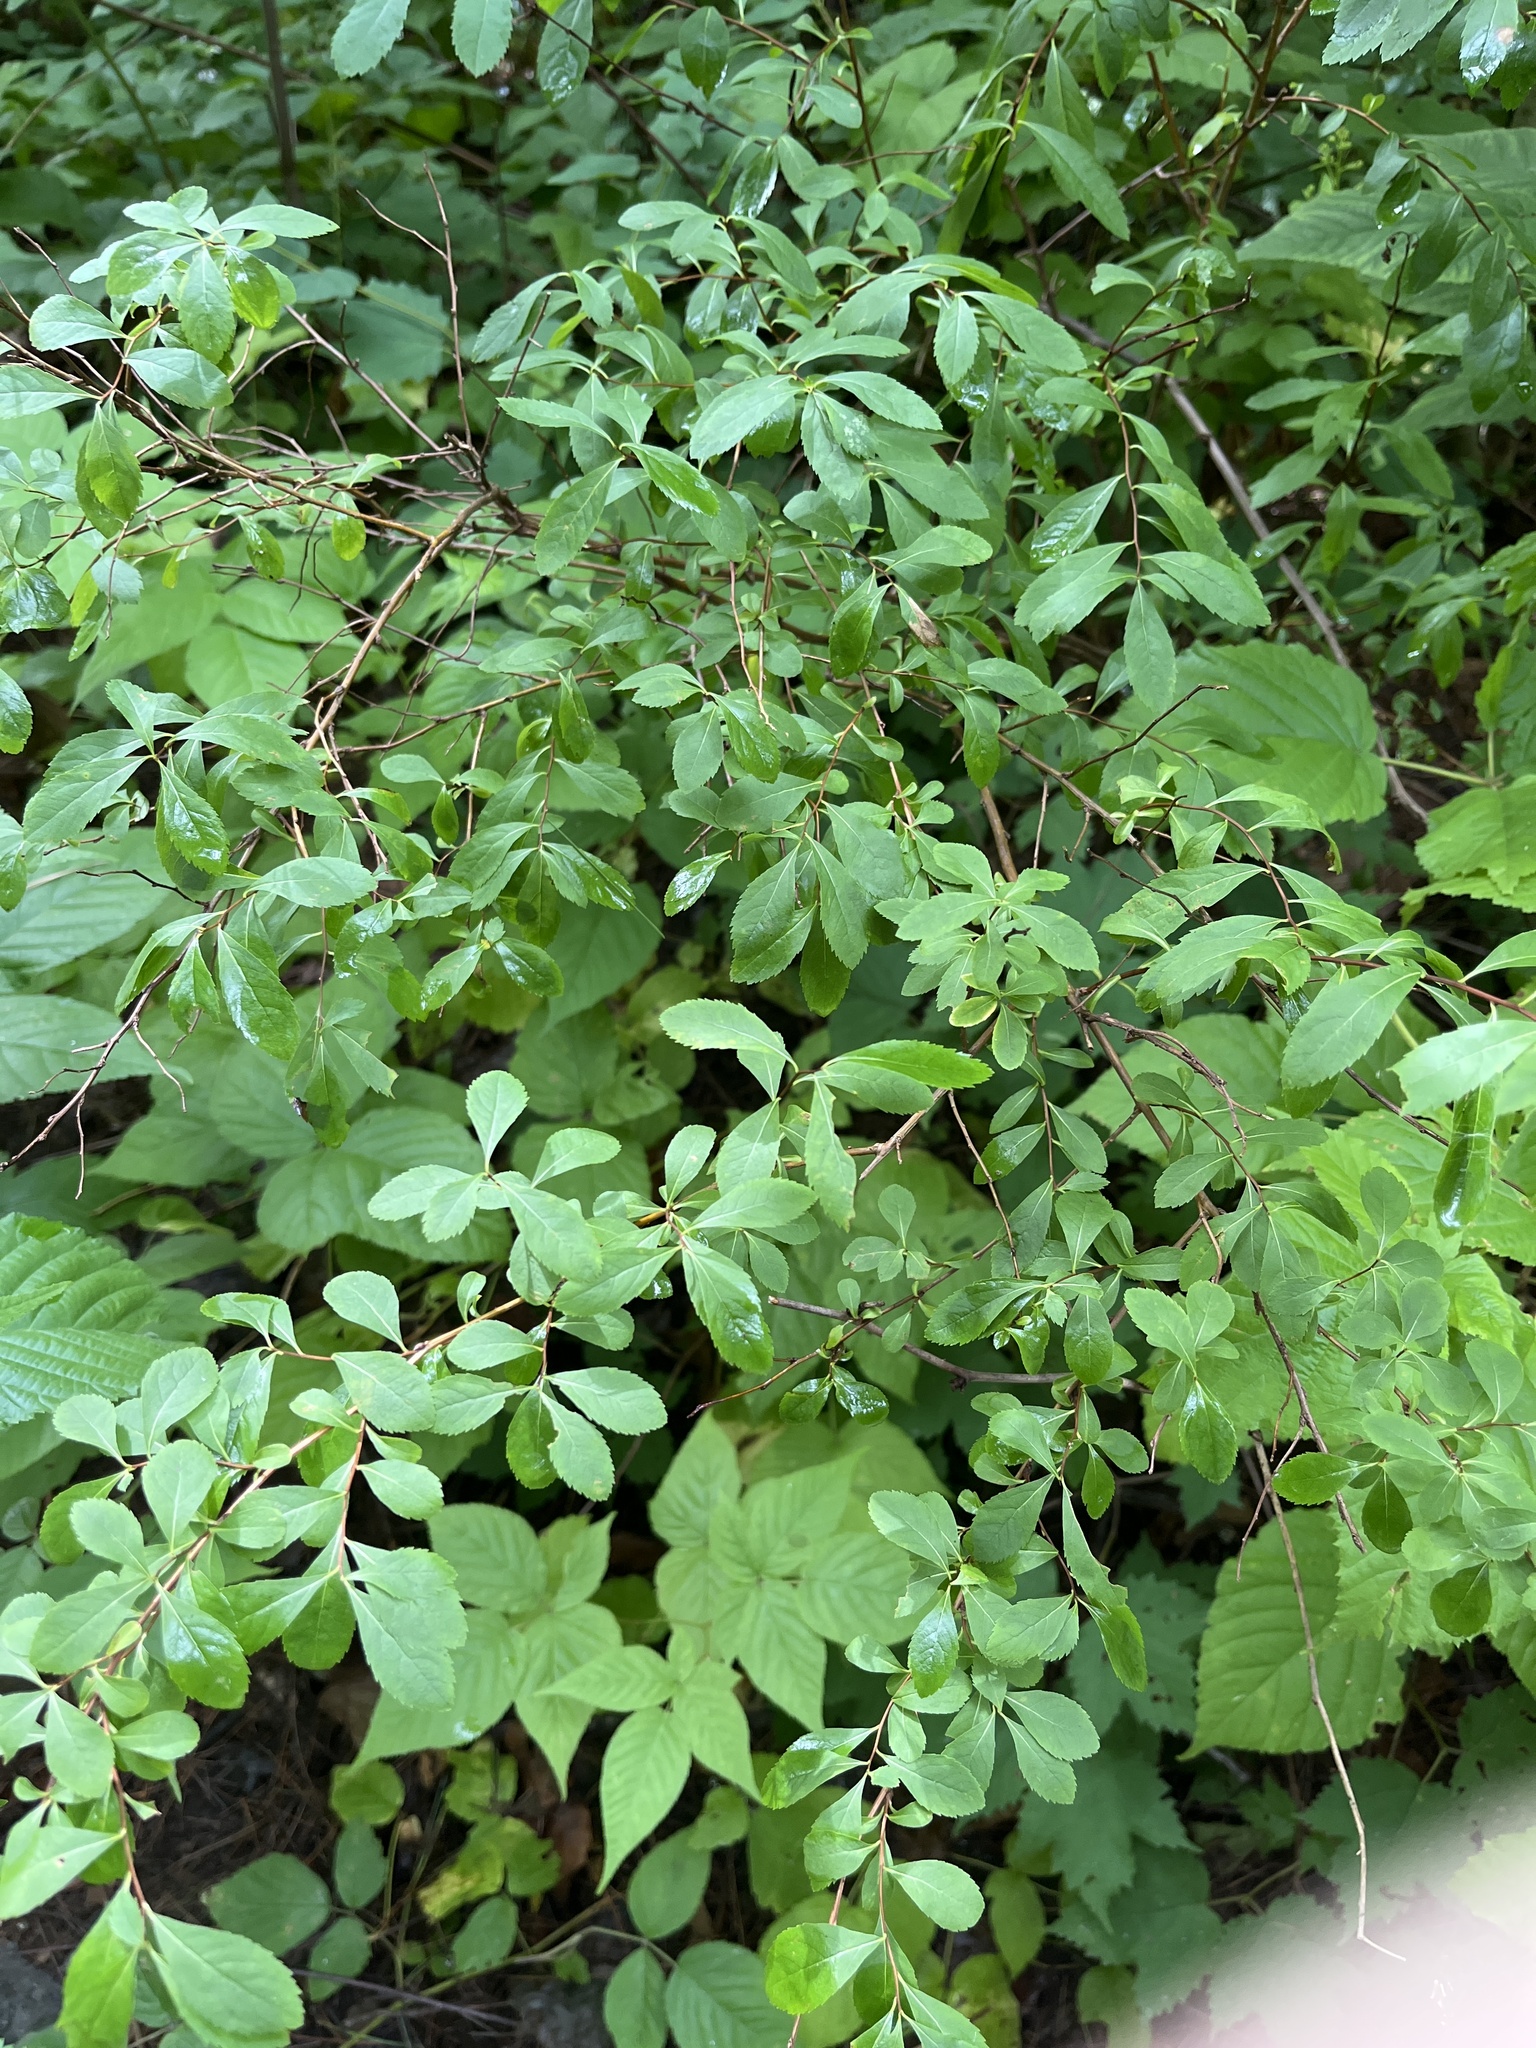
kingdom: Plantae
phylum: Tracheophyta
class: Magnoliopsida
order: Rosales
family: Rosaceae
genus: Spiraea
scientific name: Spiraea alba
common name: Pale bridewort
